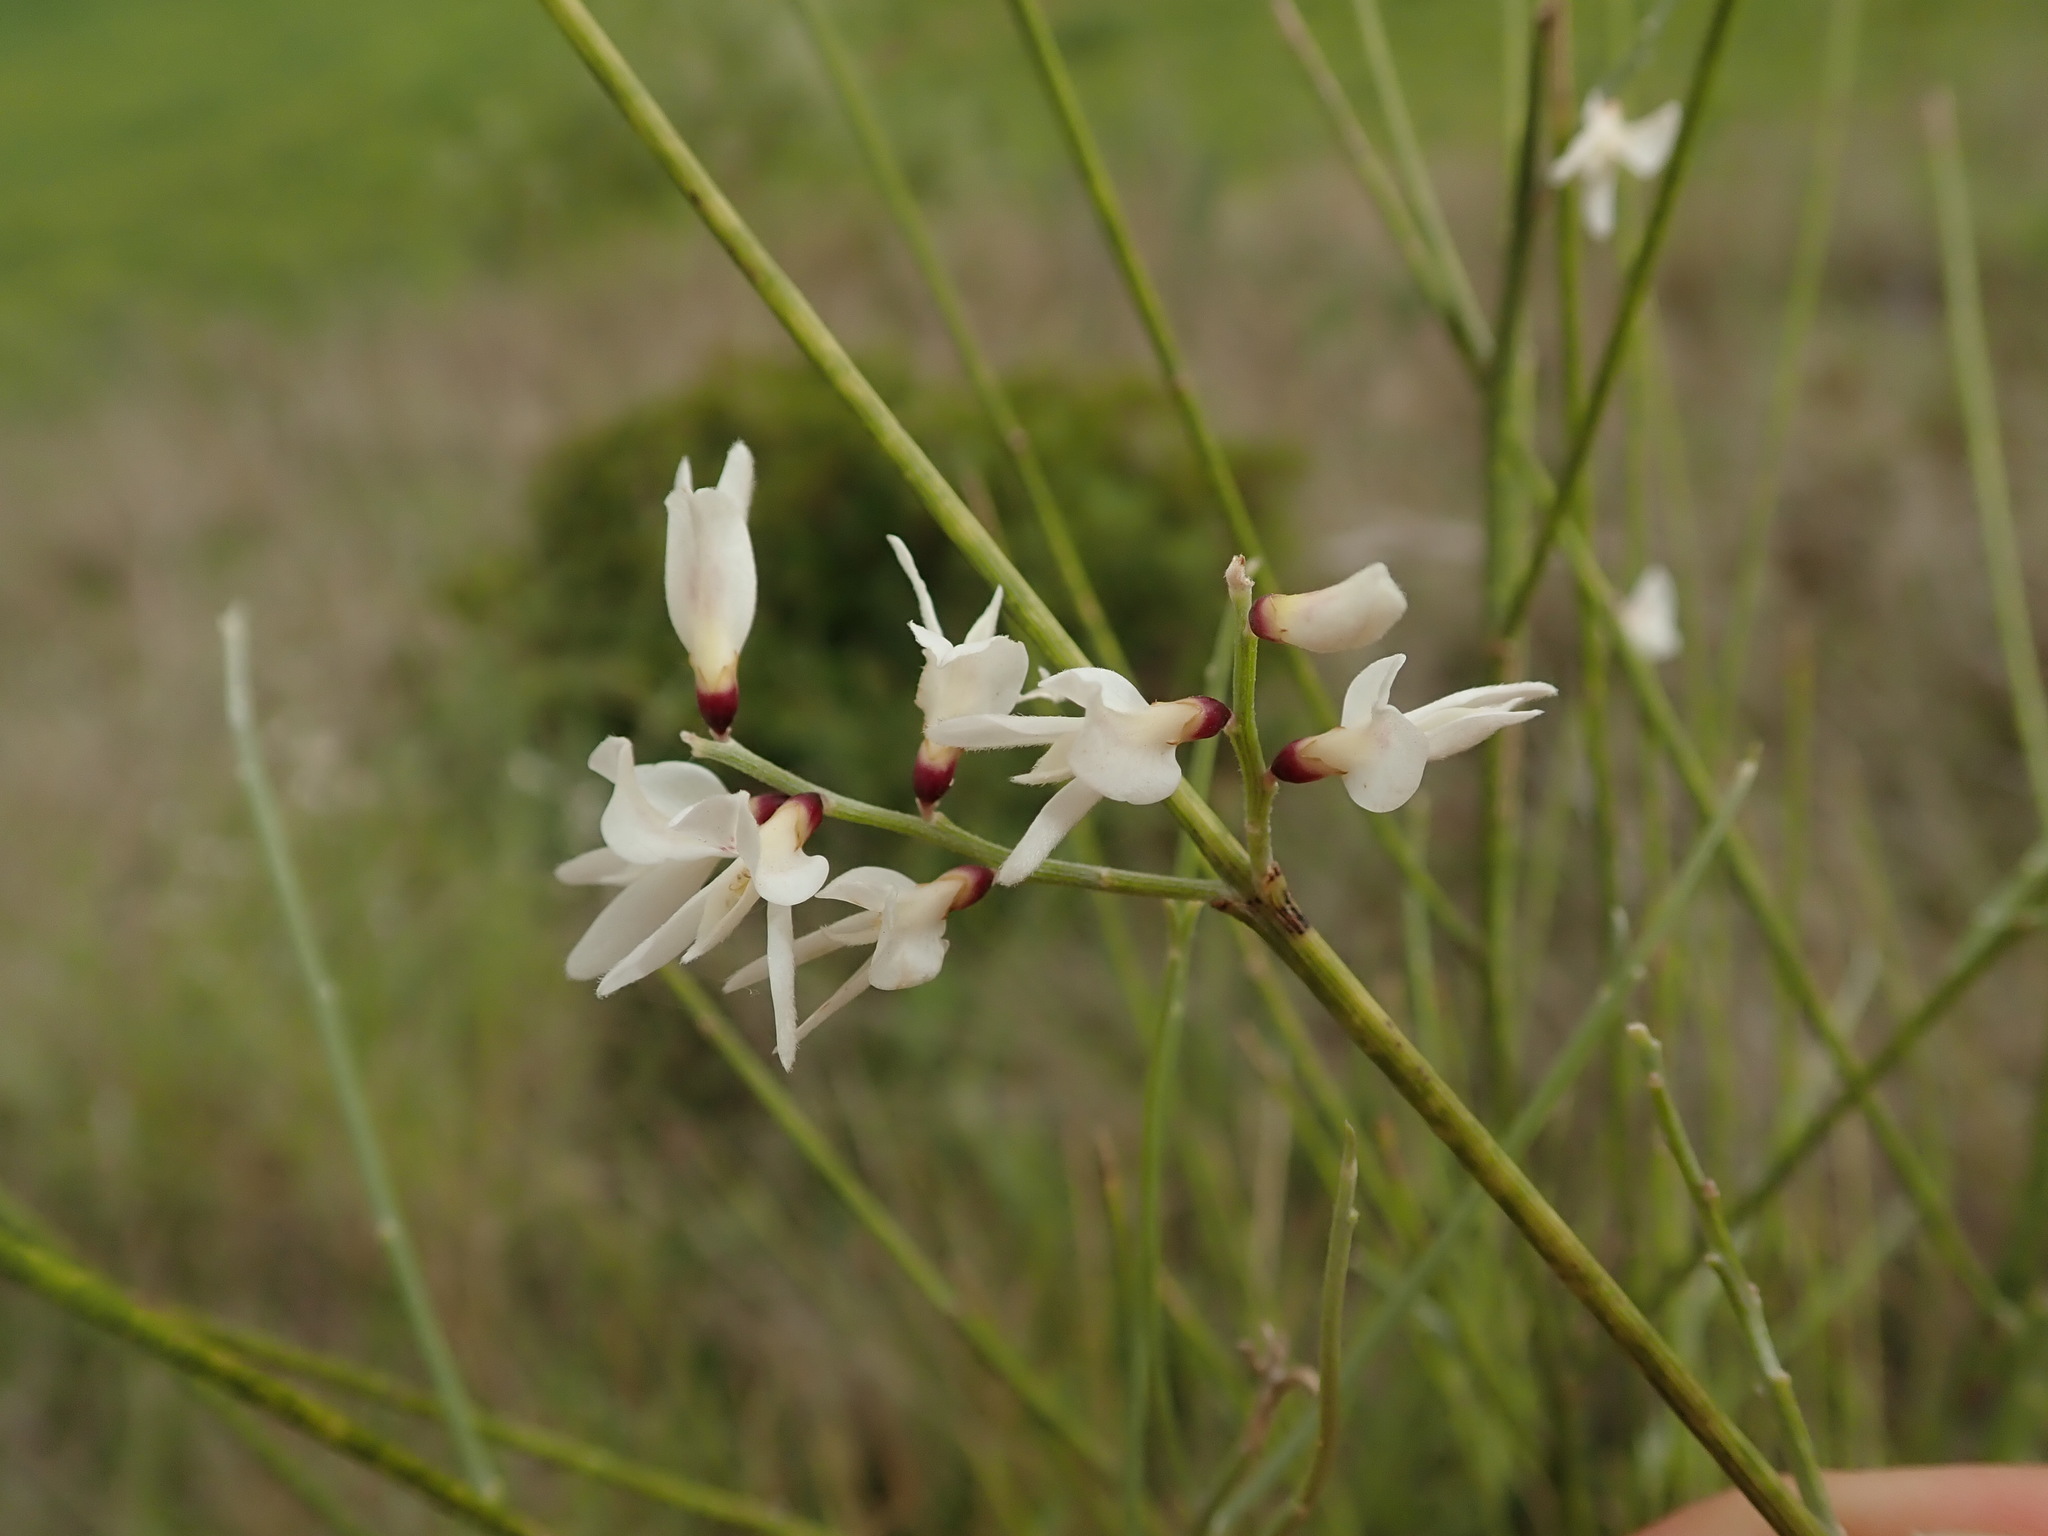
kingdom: Plantae
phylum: Tracheophyta
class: Magnoliopsida
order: Fabales
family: Fabaceae
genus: Retama
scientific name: Retama monosperma
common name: Bridal broom
